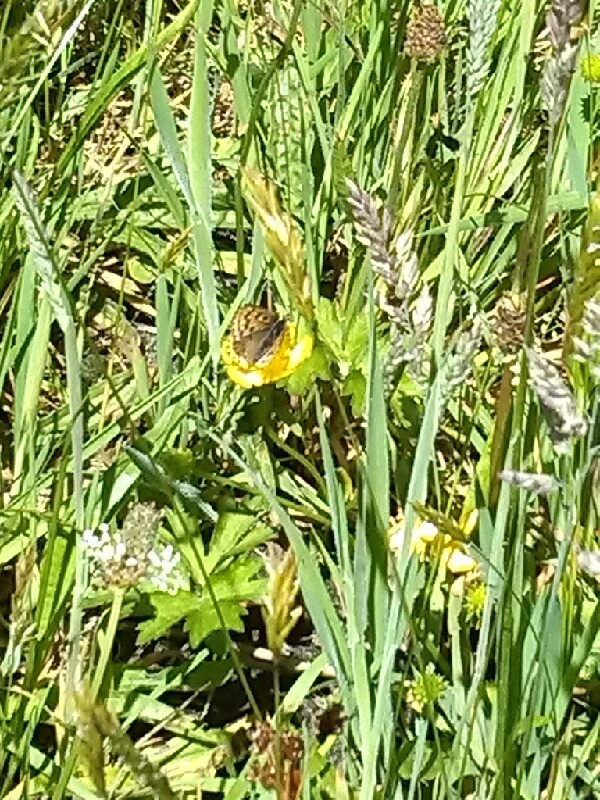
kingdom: Animalia
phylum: Arthropoda
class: Insecta
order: Lepidoptera
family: Lycaenidae
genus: Loweia
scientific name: Loweia tityrus
